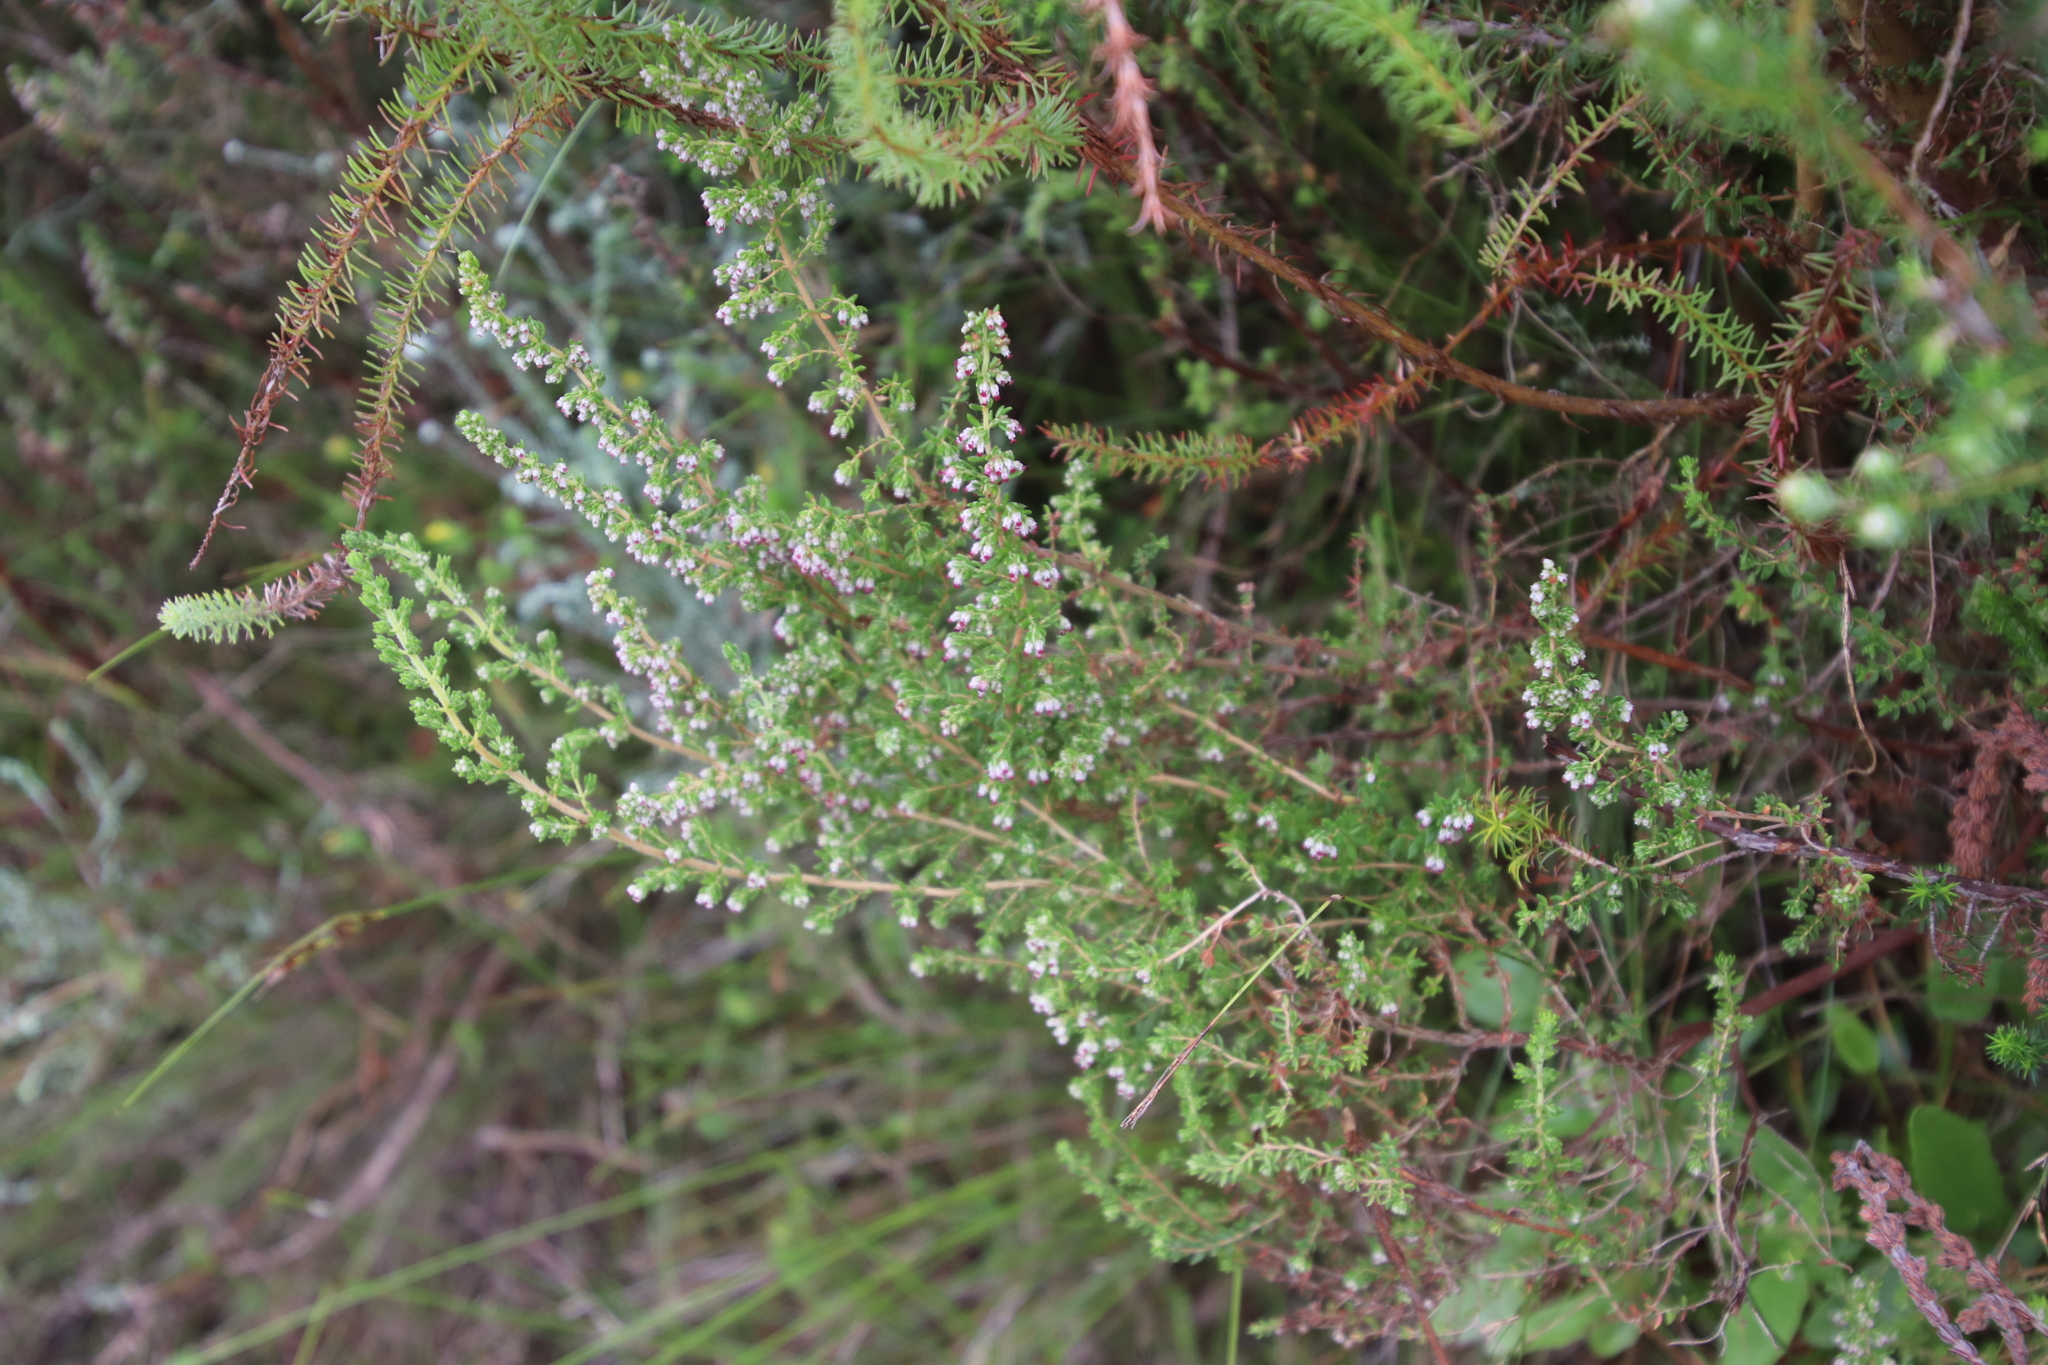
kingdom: Plantae
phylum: Tracheophyta
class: Magnoliopsida
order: Ericales
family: Ericaceae
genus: Erica
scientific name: Erica hispidula
